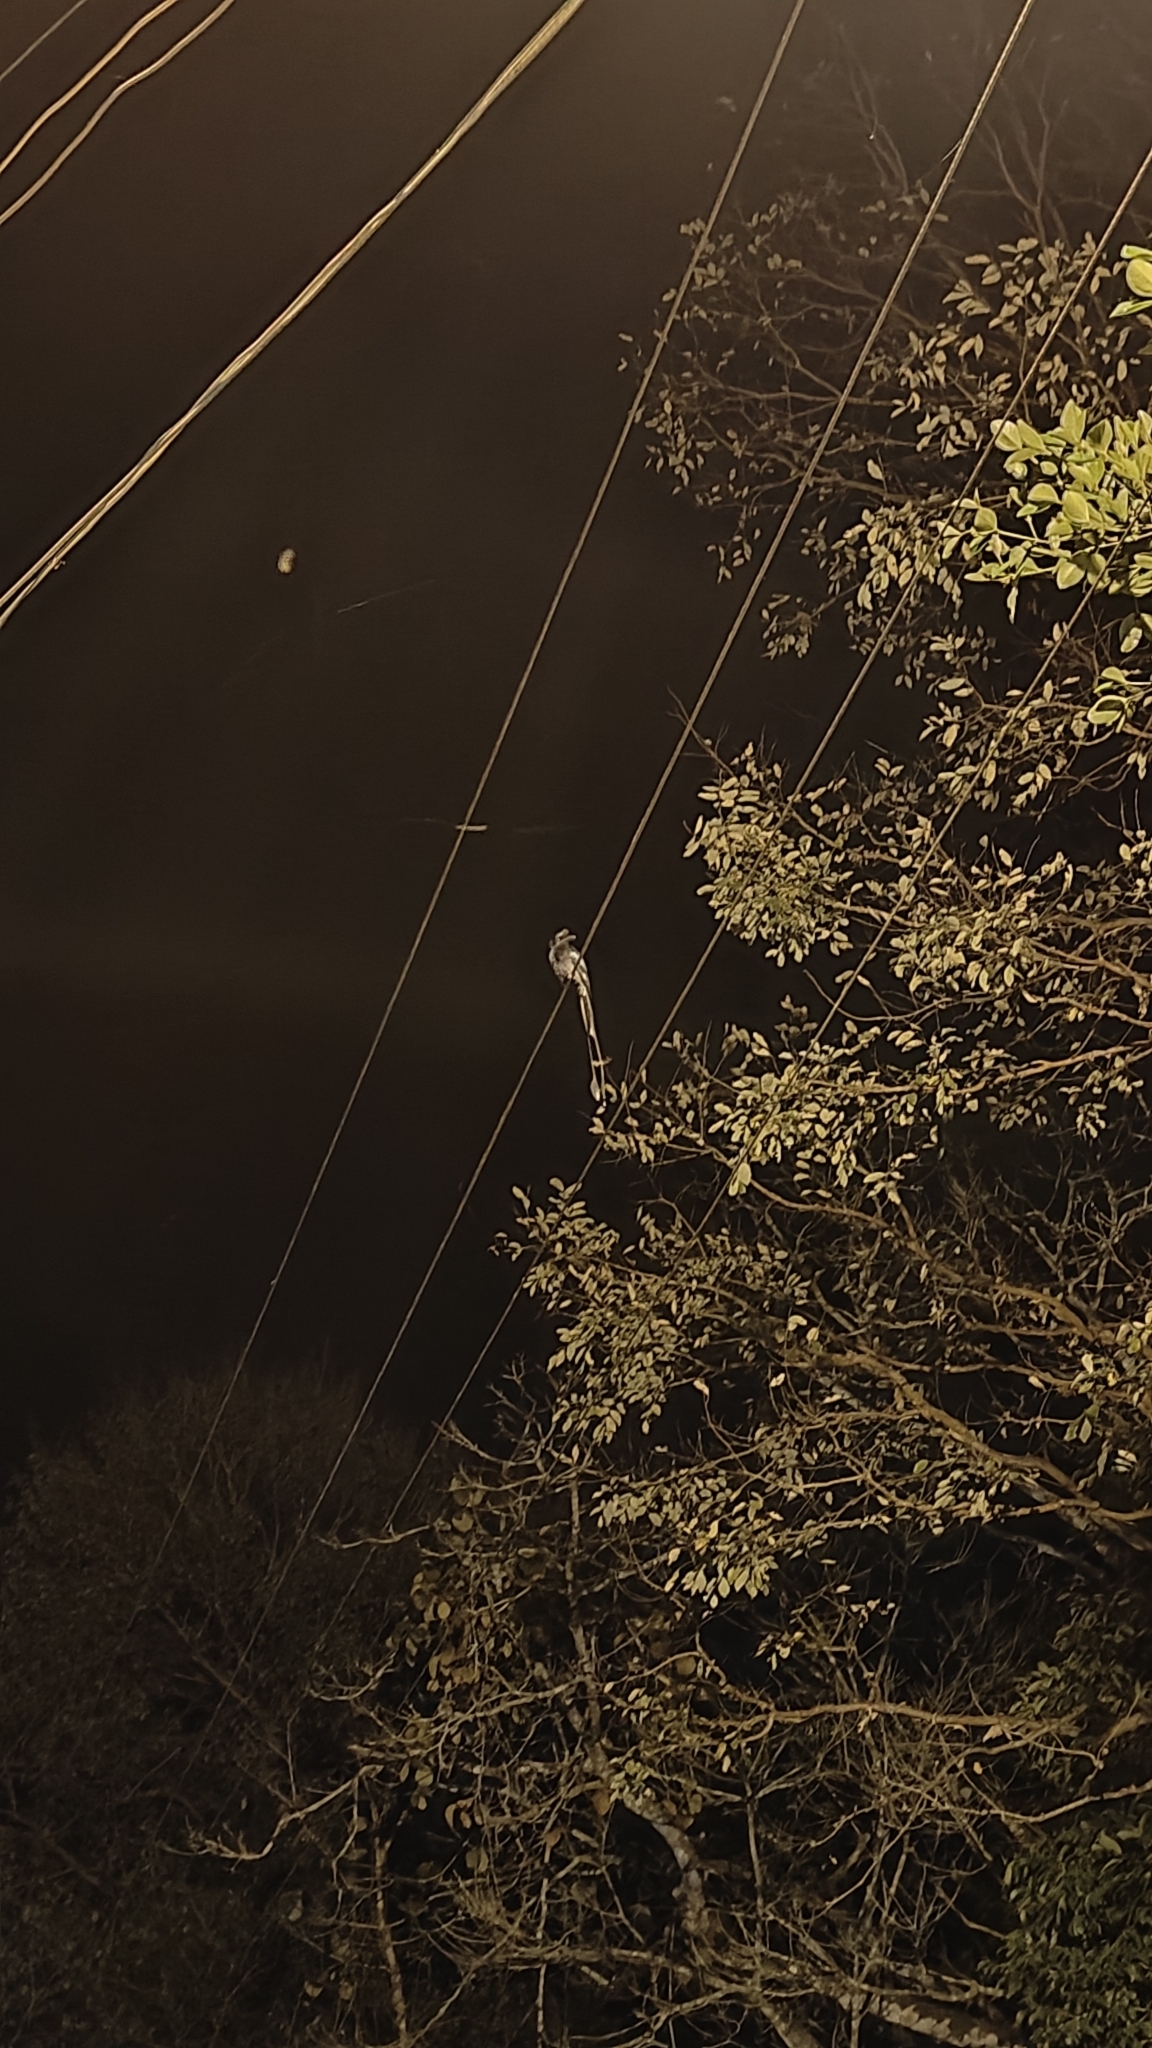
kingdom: Animalia
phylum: Chordata
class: Aves
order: Passeriformes
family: Dicruridae
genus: Dicrurus
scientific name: Dicrurus paradiseus
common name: Greater racket-tailed drongo
